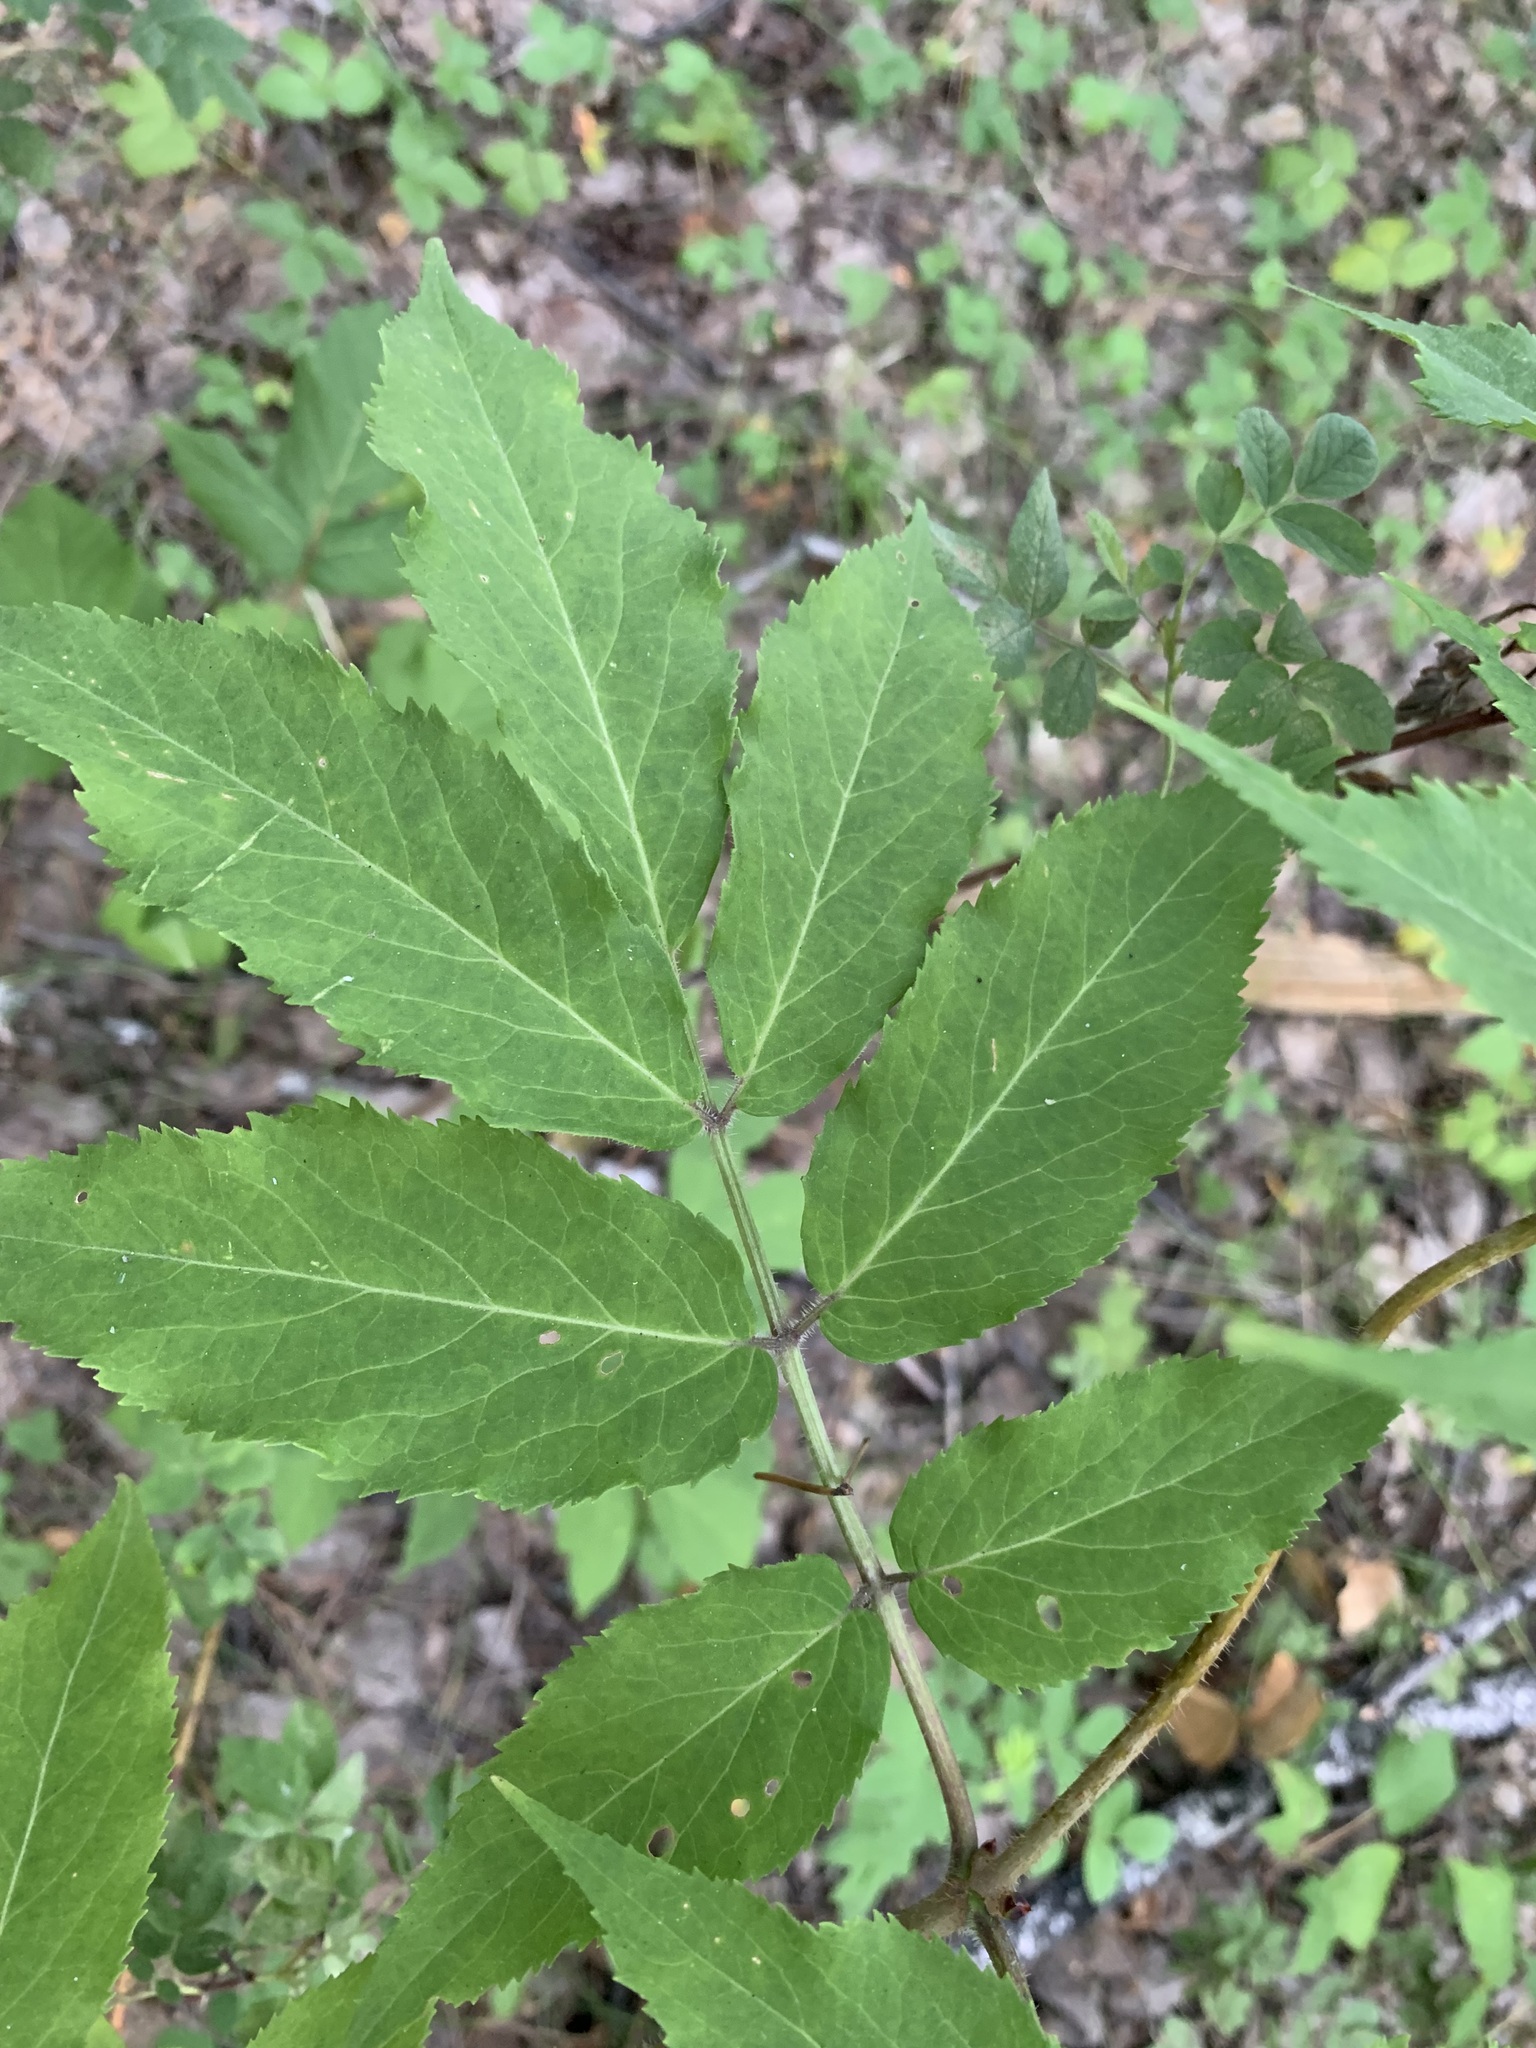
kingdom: Plantae
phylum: Tracheophyta
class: Magnoliopsida
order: Dipsacales
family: Viburnaceae
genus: Sambucus
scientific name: Sambucus sibirica
